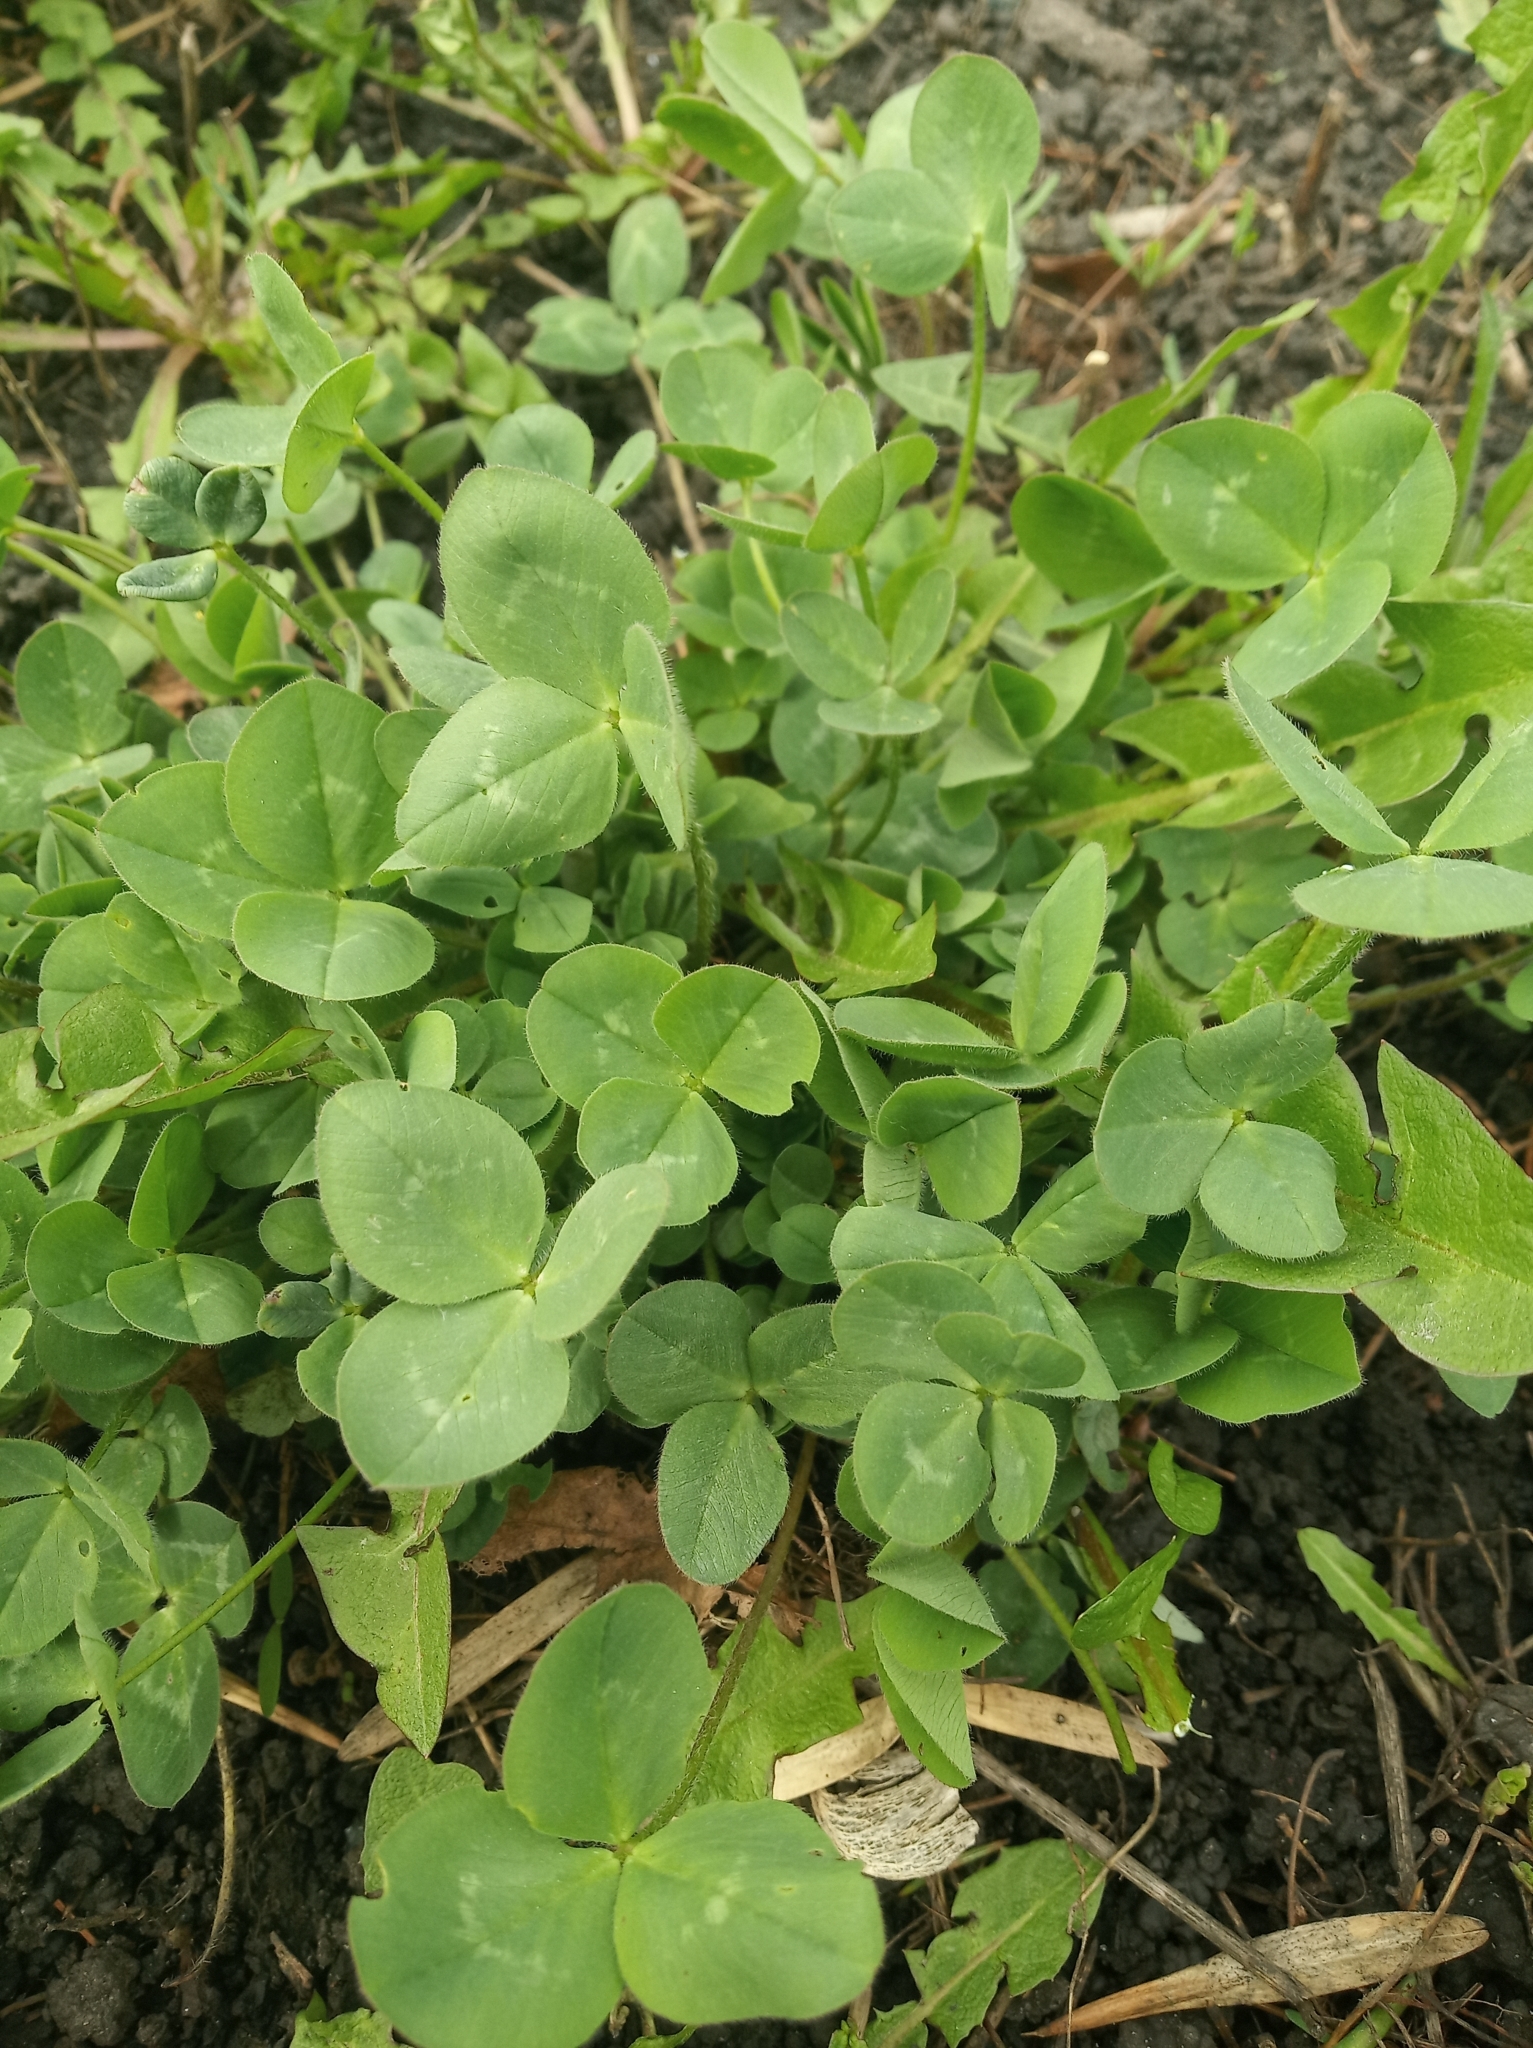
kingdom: Plantae
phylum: Tracheophyta
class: Magnoliopsida
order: Fabales
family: Fabaceae
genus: Trifolium
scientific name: Trifolium repens
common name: White clover
